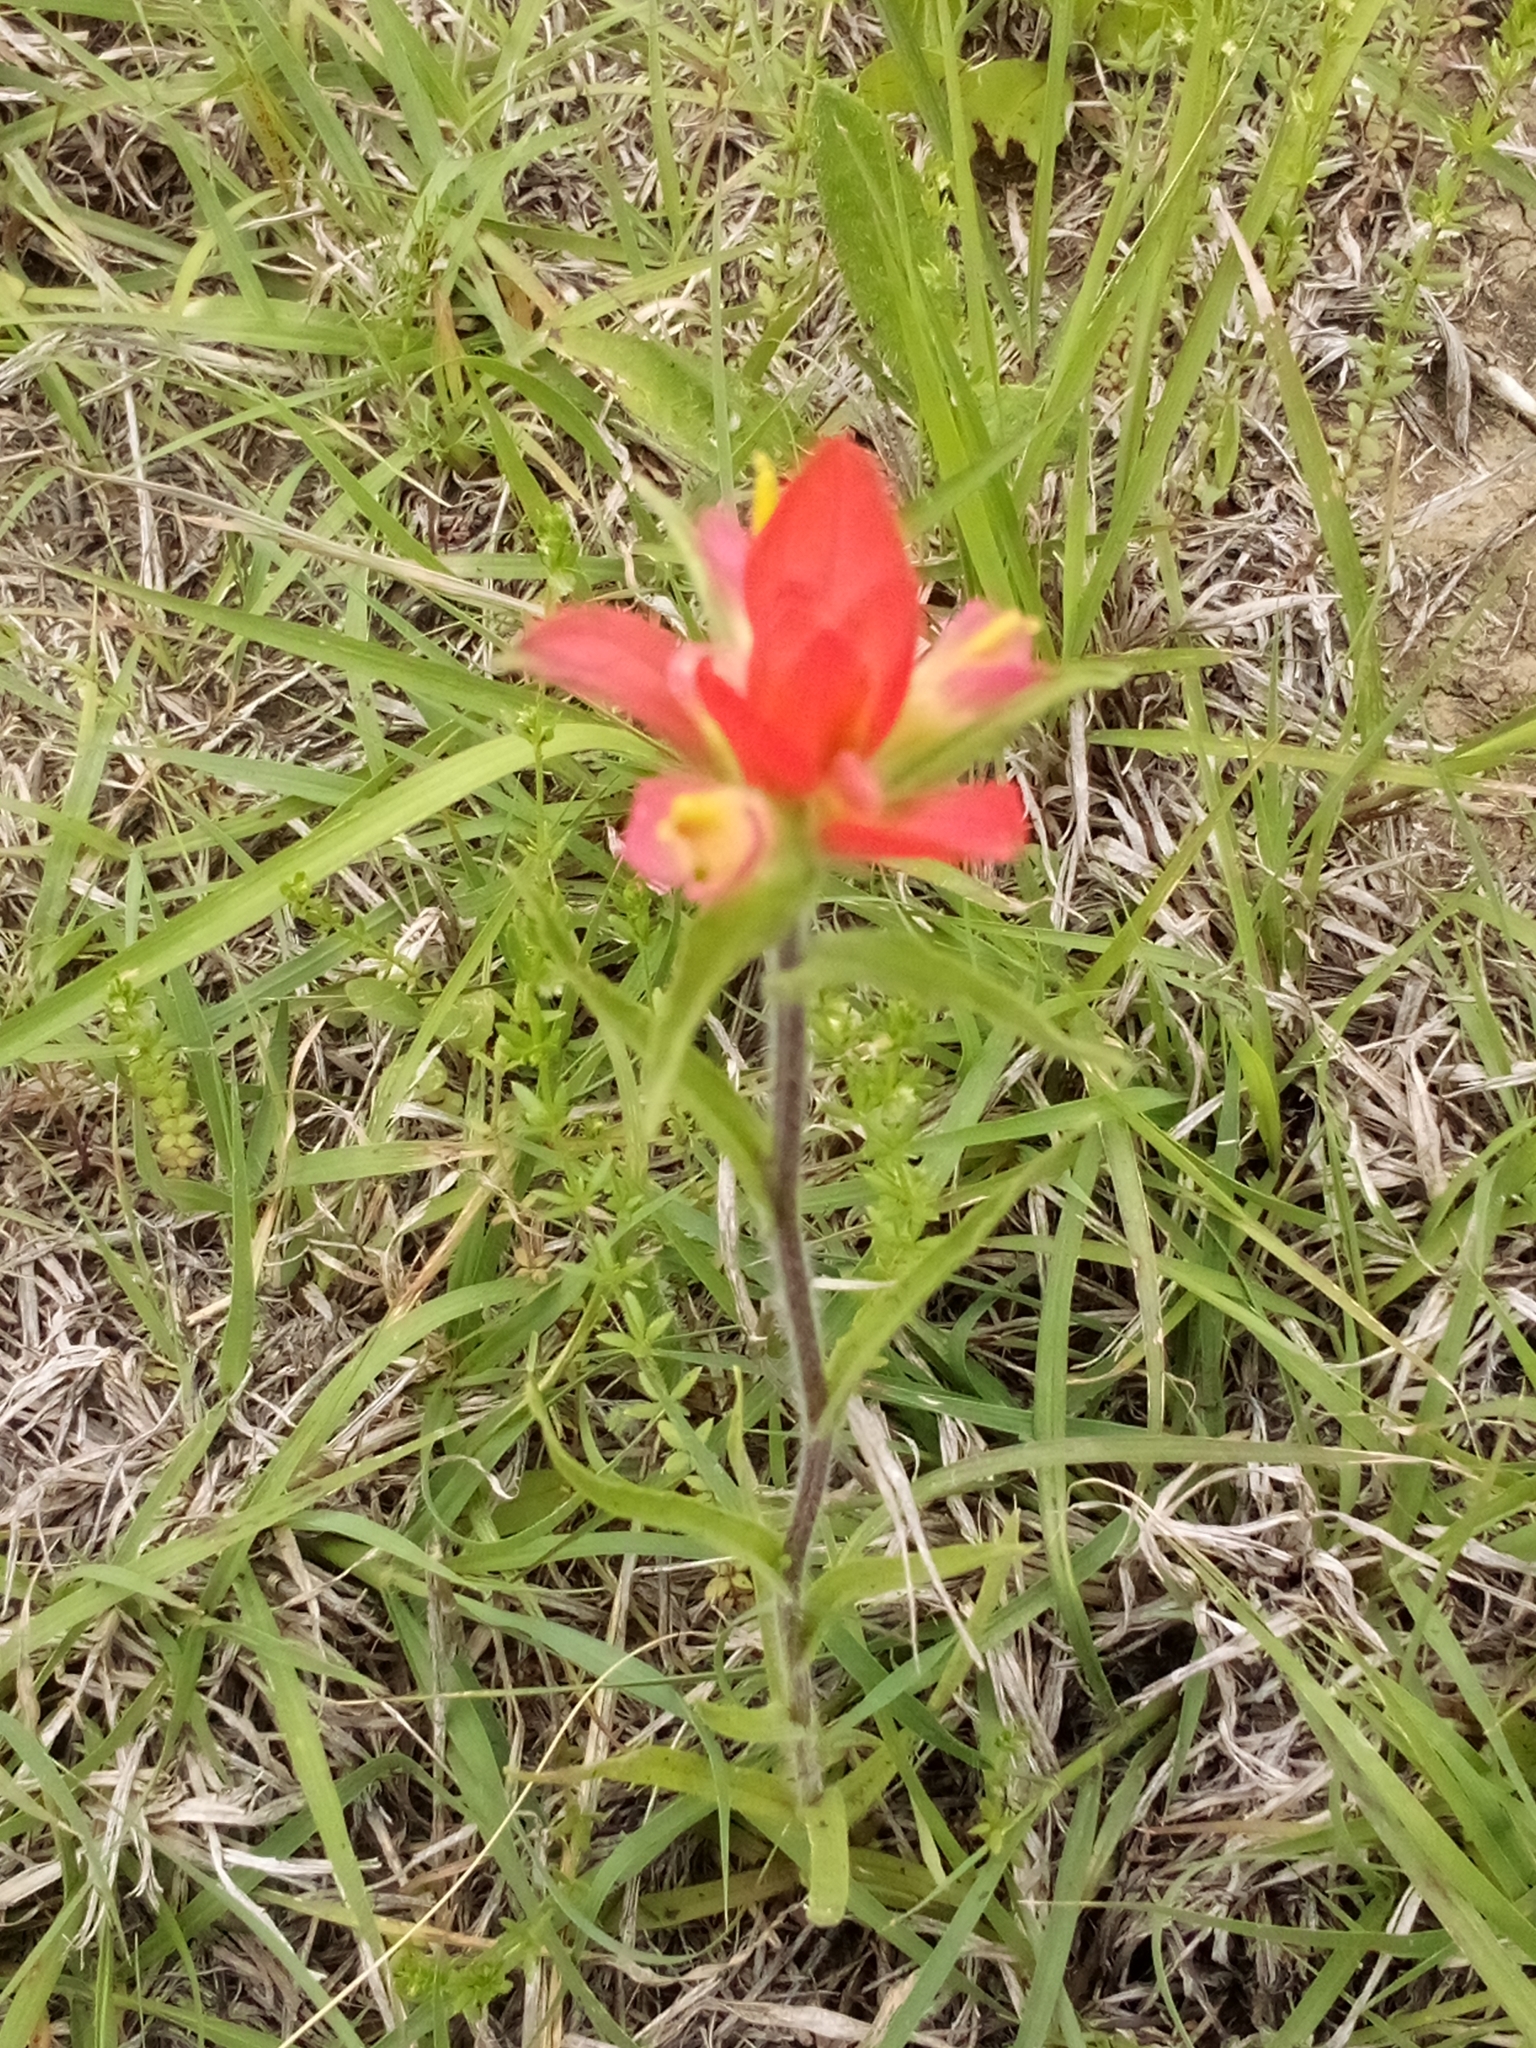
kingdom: Plantae
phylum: Tracheophyta
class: Magnoliopsida
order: Lamiales
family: Orobanchaceae
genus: Castilleja
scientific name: Castilleja indivisa
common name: Texas paintbrush
